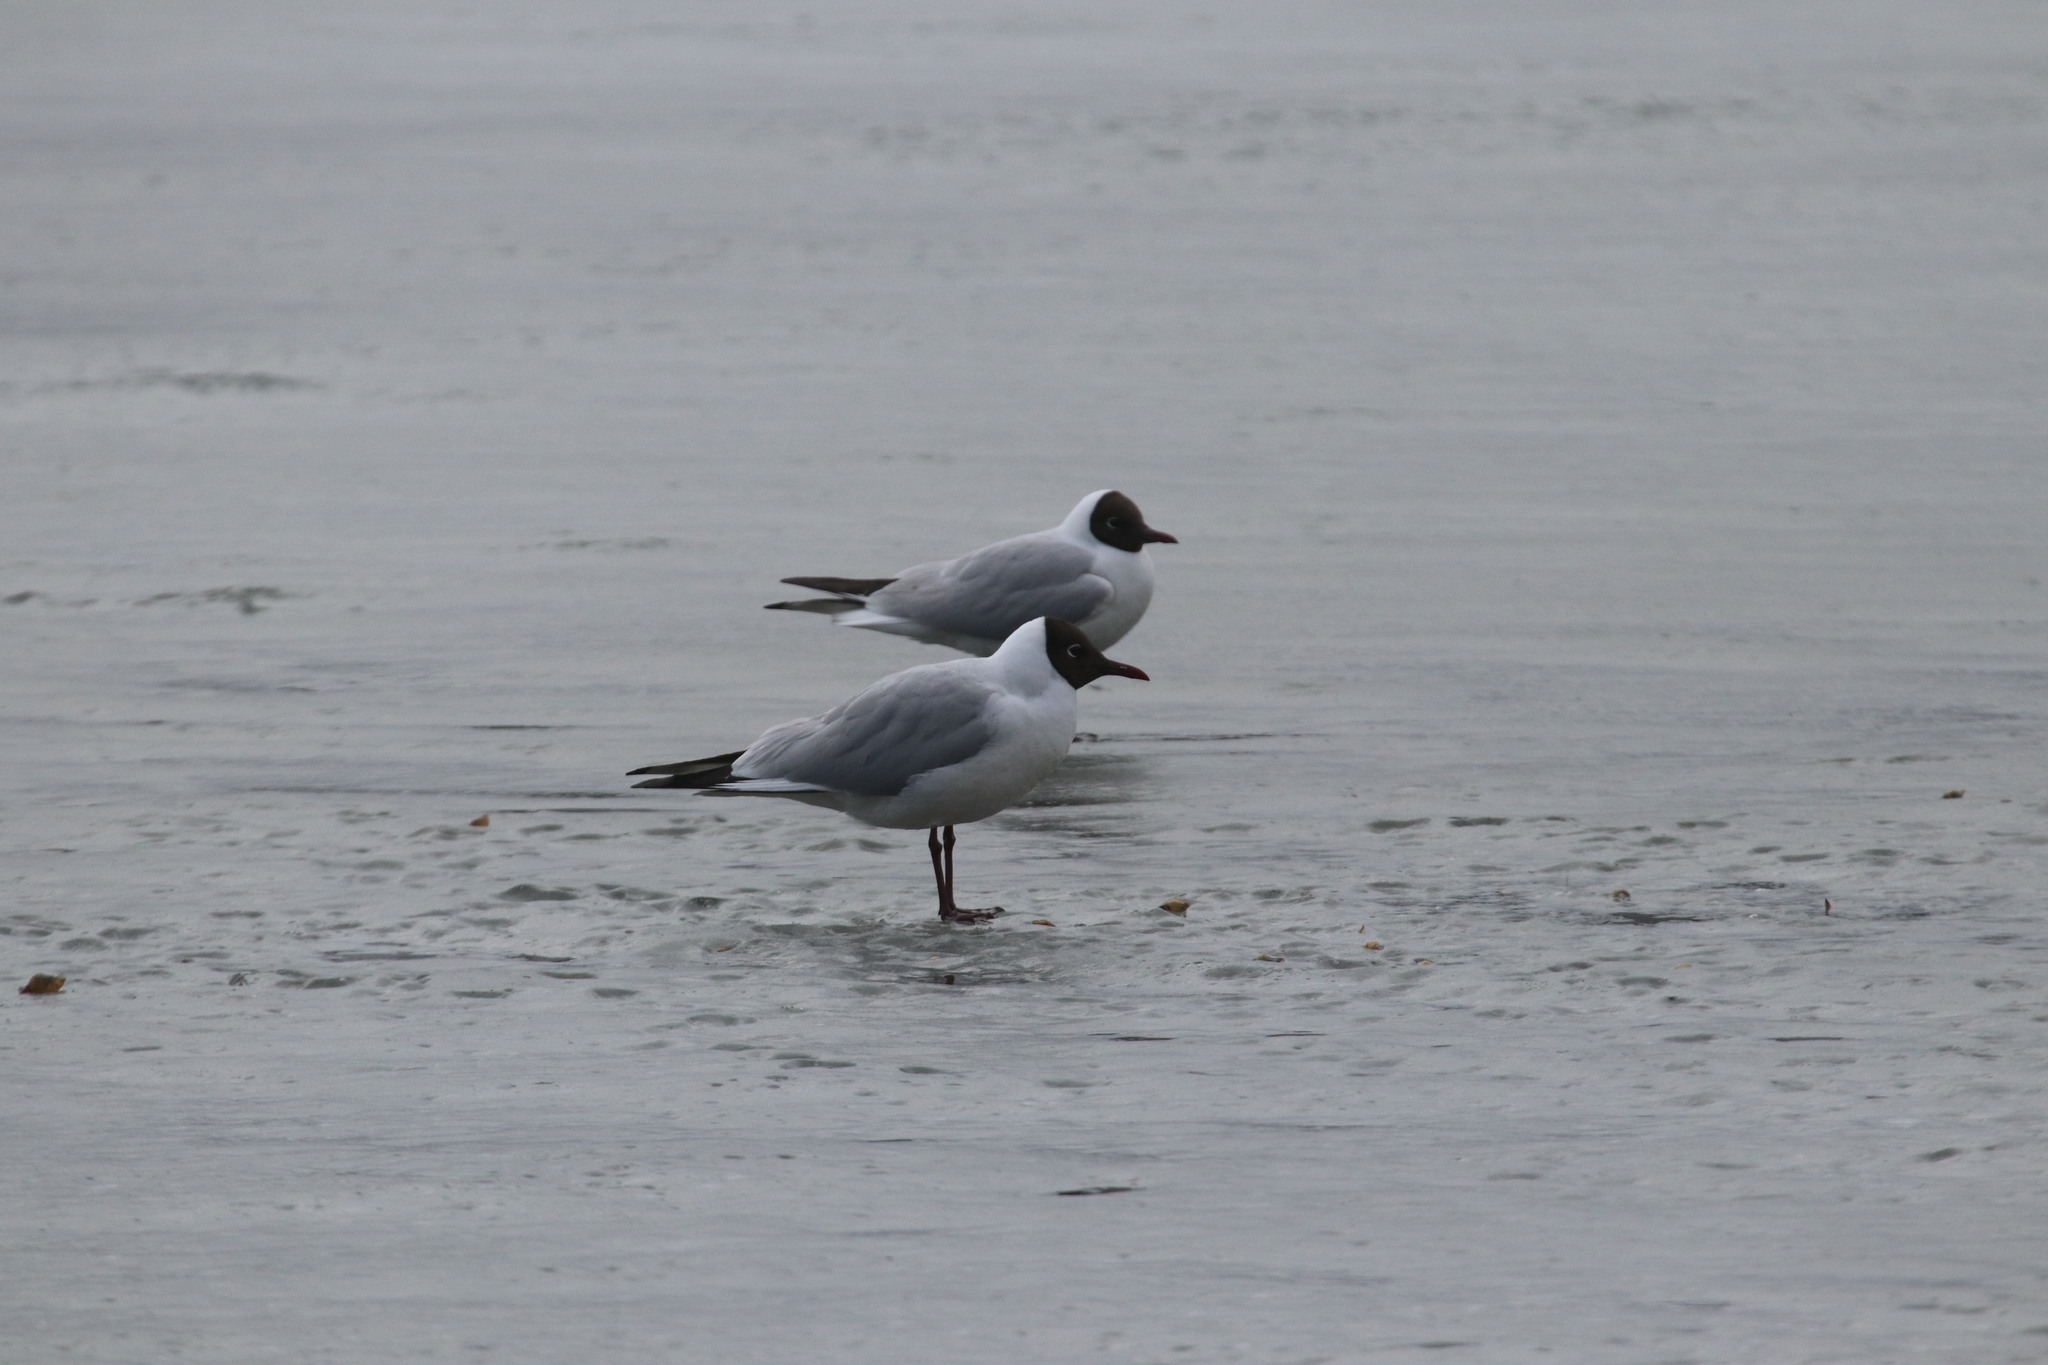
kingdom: Animalia
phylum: Chordata
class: Aves
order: Charadriiformes
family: Laridae
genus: Chroicocephalus
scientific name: Chroicocephalus ridibundus
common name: Black-headed gull
